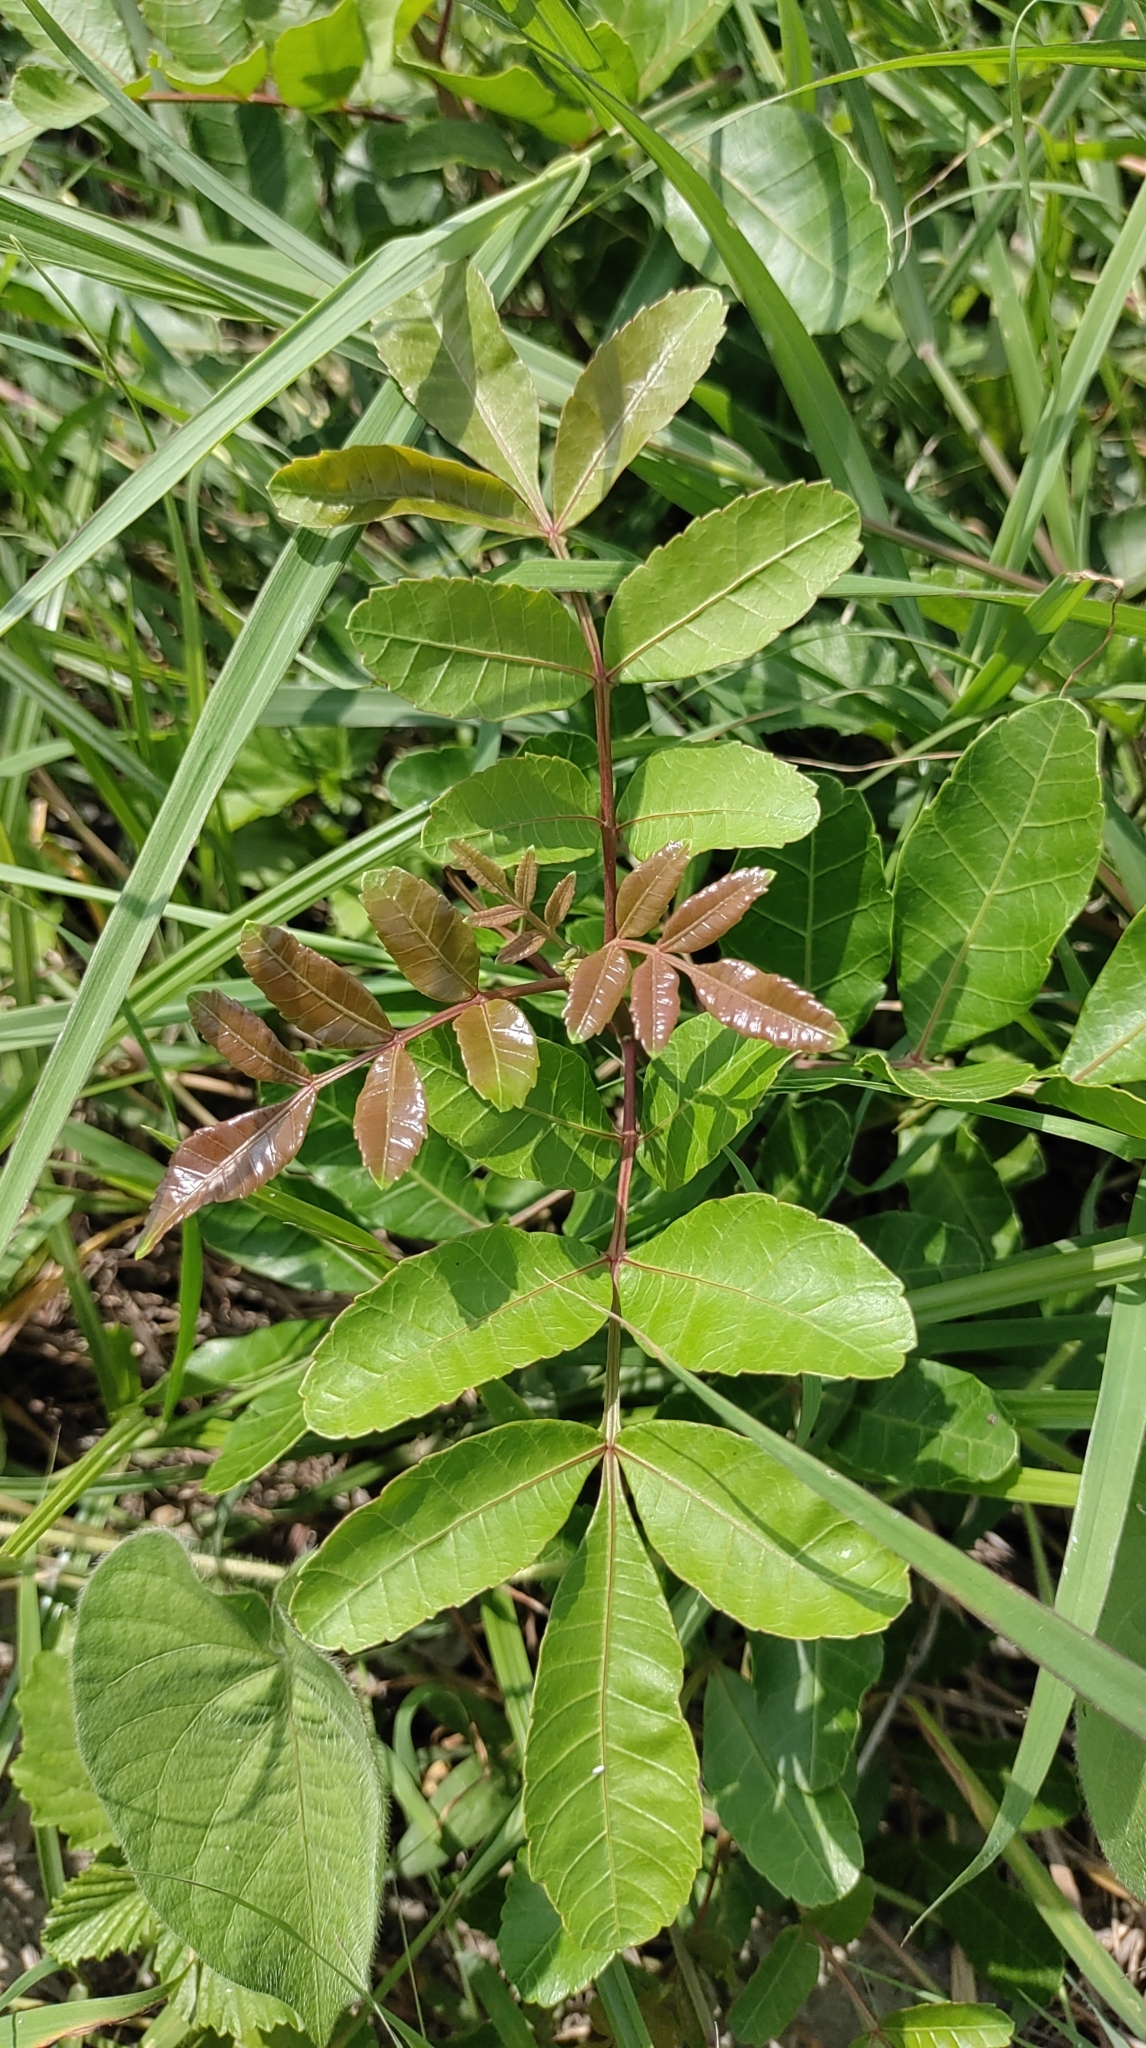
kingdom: Plantae
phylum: Tracheophyta
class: Magnoliopsida
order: Sapindales
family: Anacardiaceae
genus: Schinus
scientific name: Schinus terebinthifolia
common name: Brazilian peppertree
